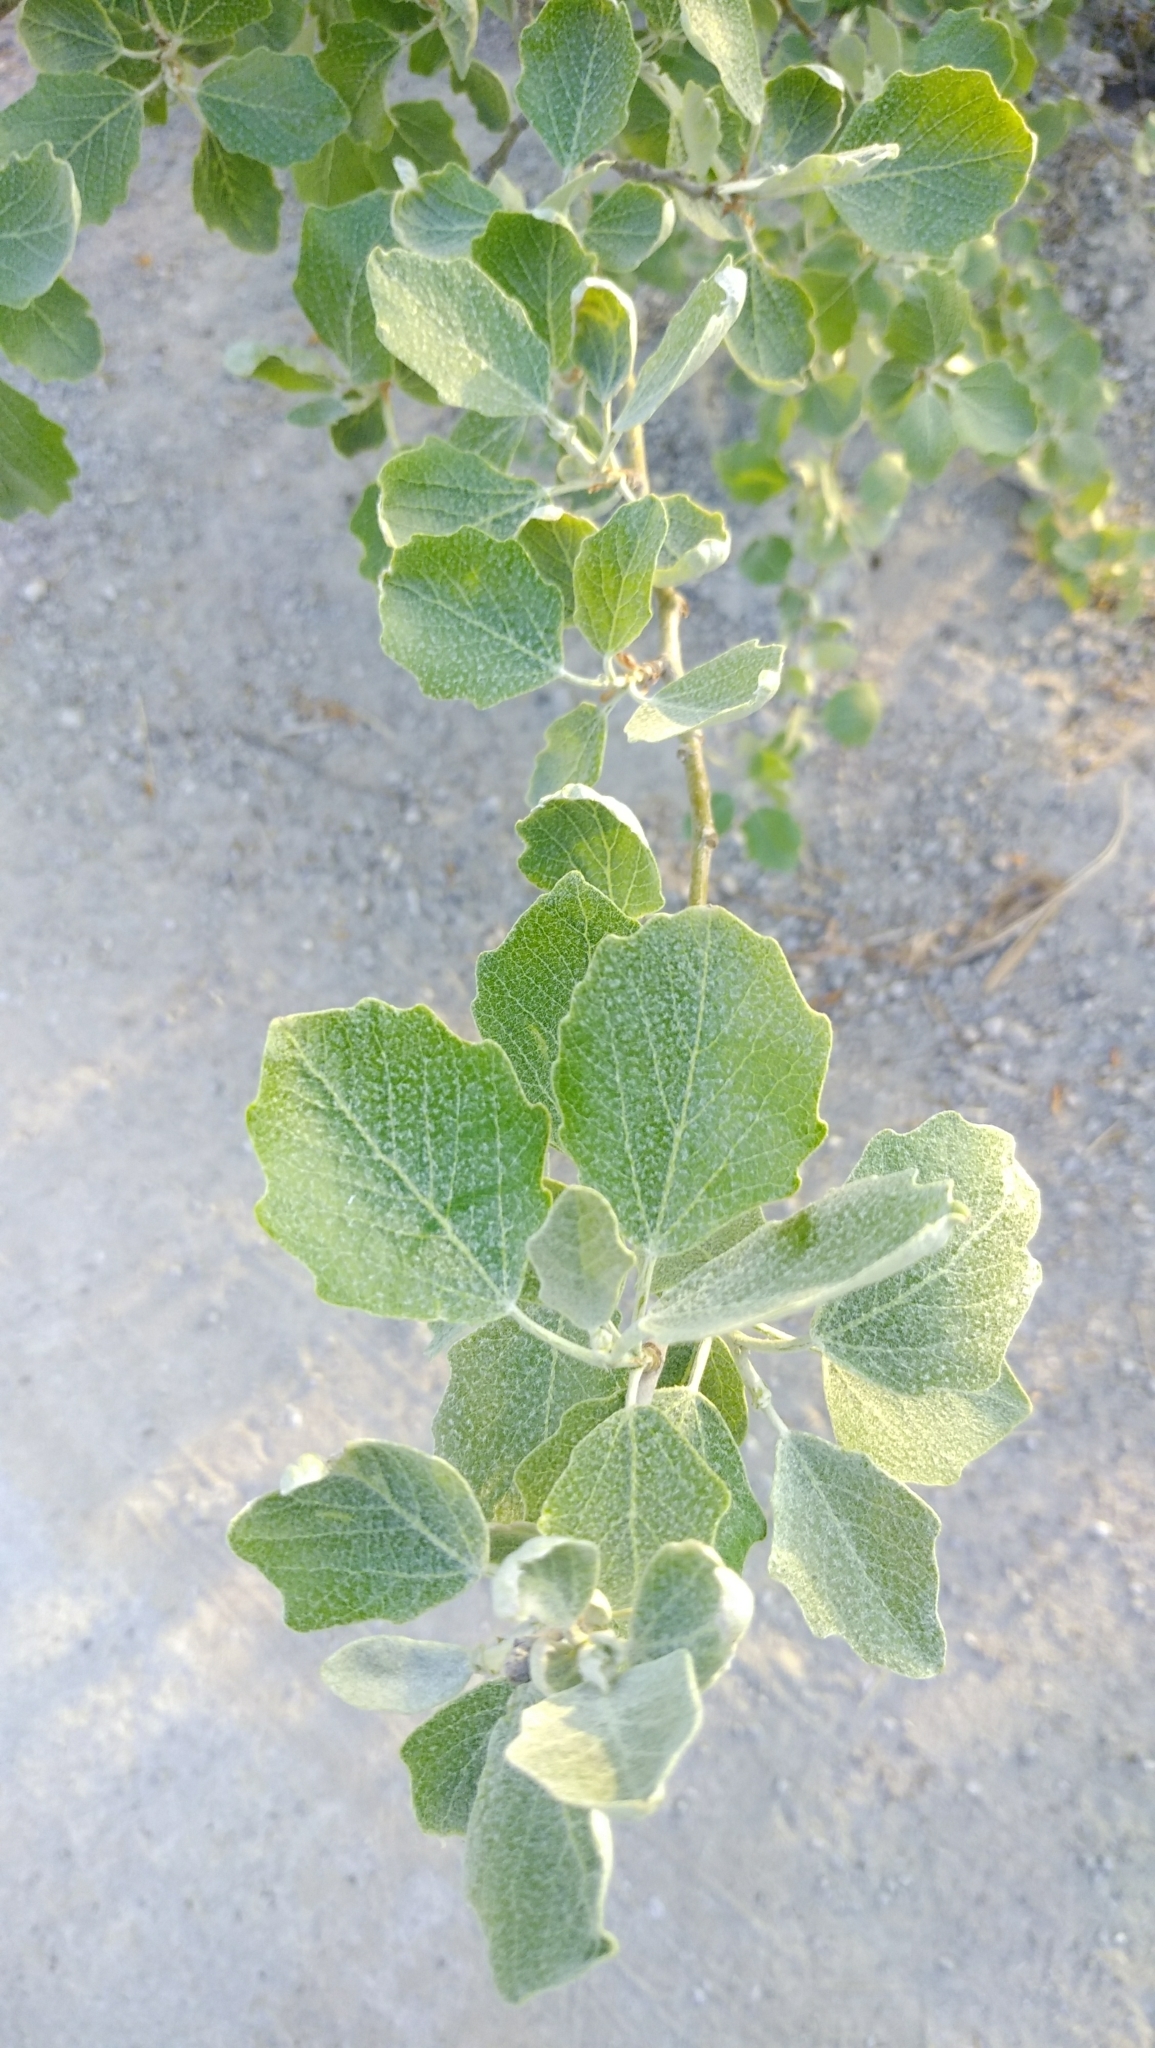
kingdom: Plantae
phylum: Tracheophyta
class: Magnoliopsida
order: Malpighiales
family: Salicaceae
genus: Populus
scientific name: Populus canescens
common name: Gray poplar
